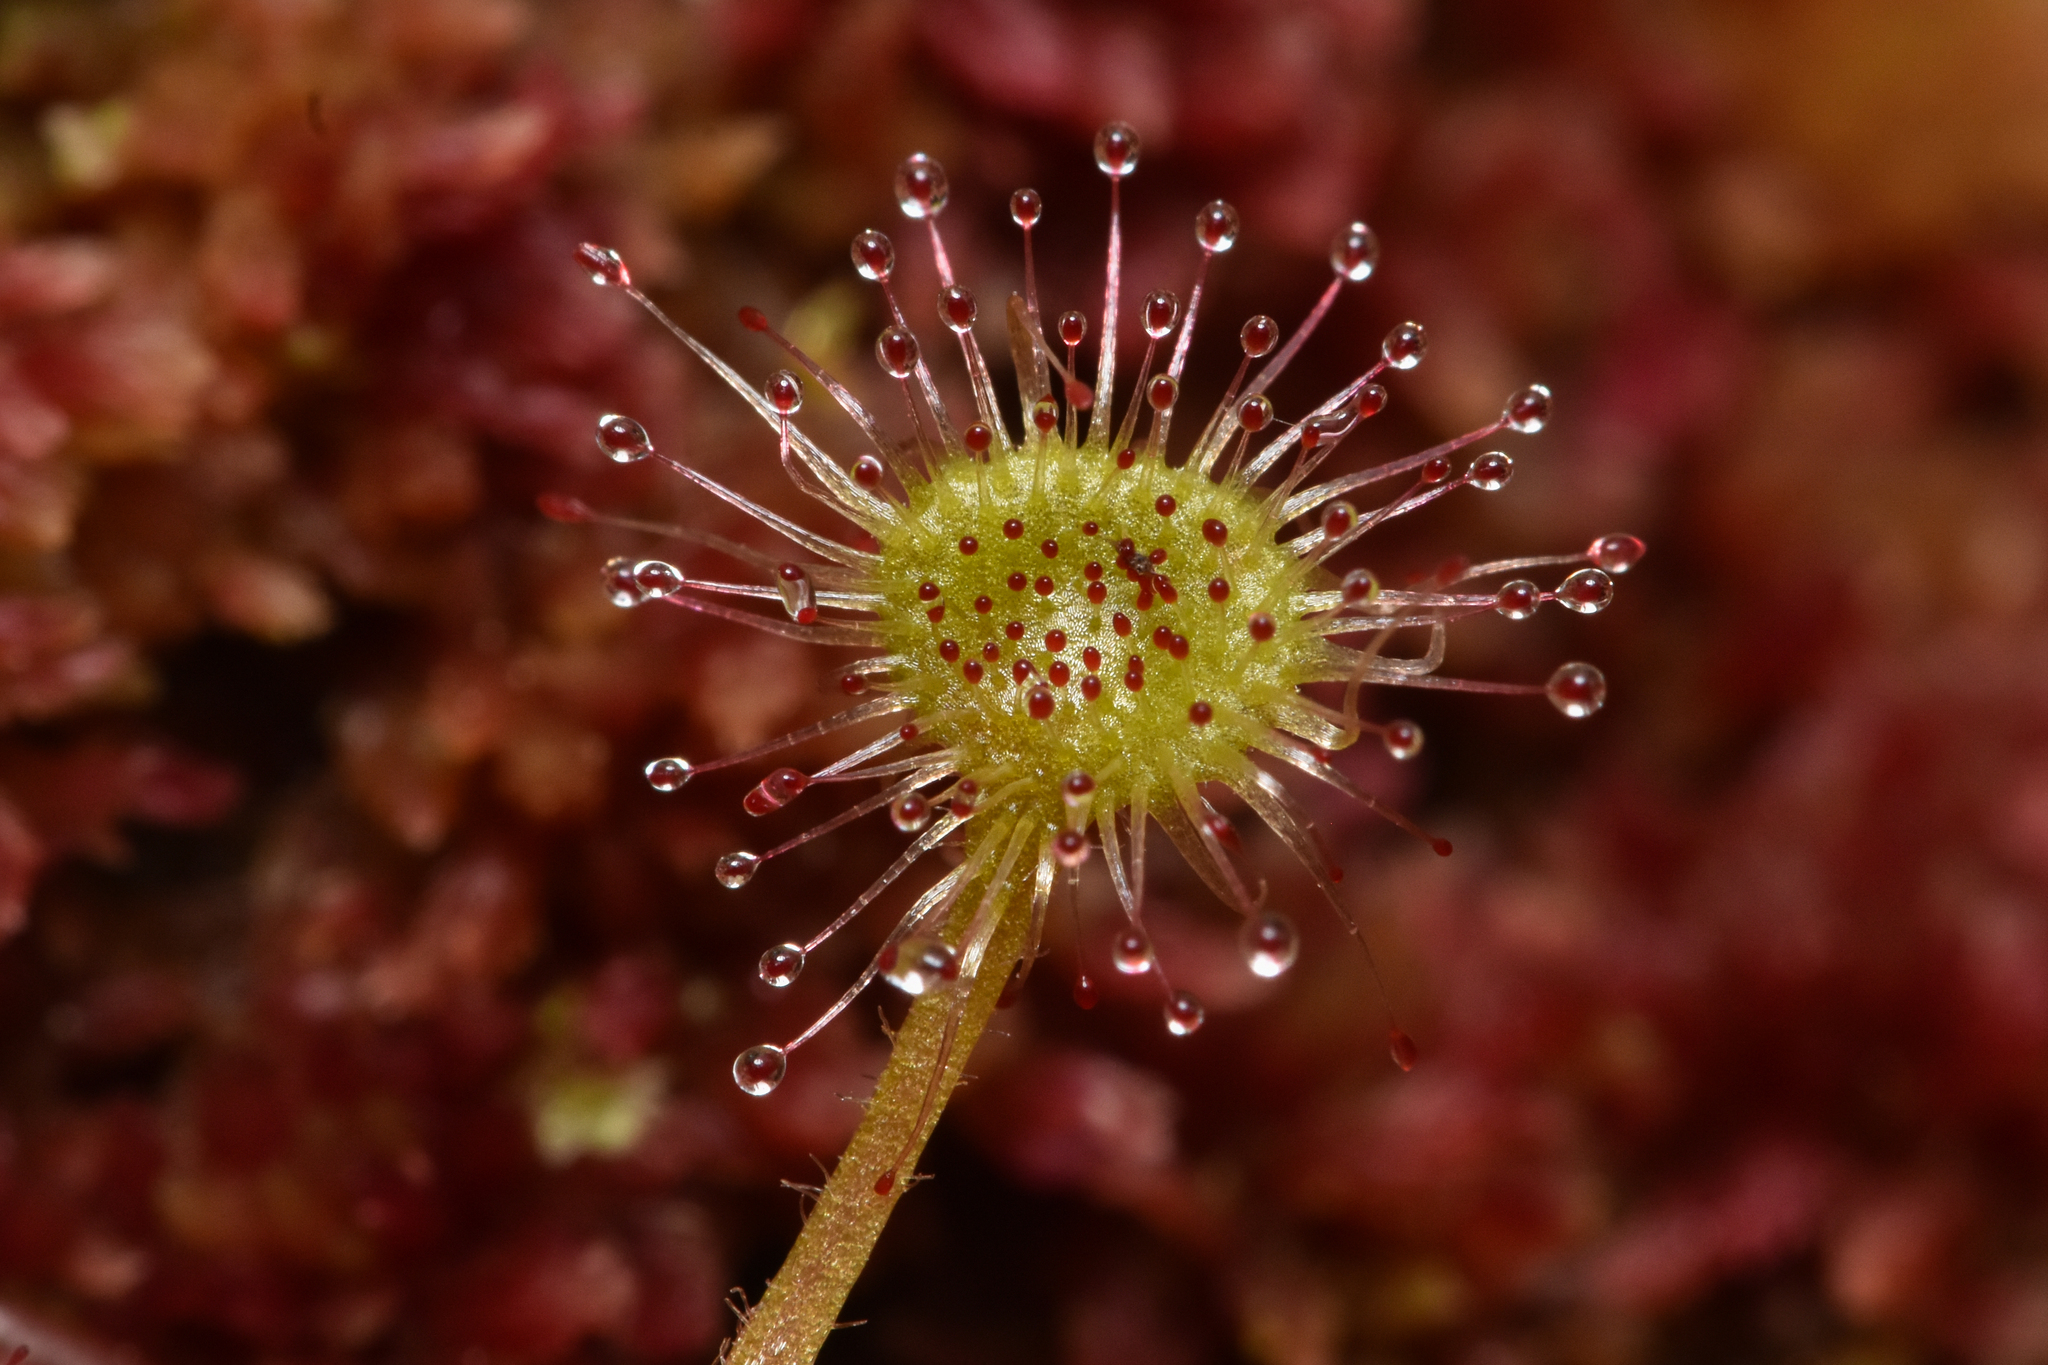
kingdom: Plantae
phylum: Tracheophyta
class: Magnoliopsida
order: Caryophyllales
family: Droseraceae
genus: Drosera
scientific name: Drosera rotundifolia
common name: Round-leaved sundew
